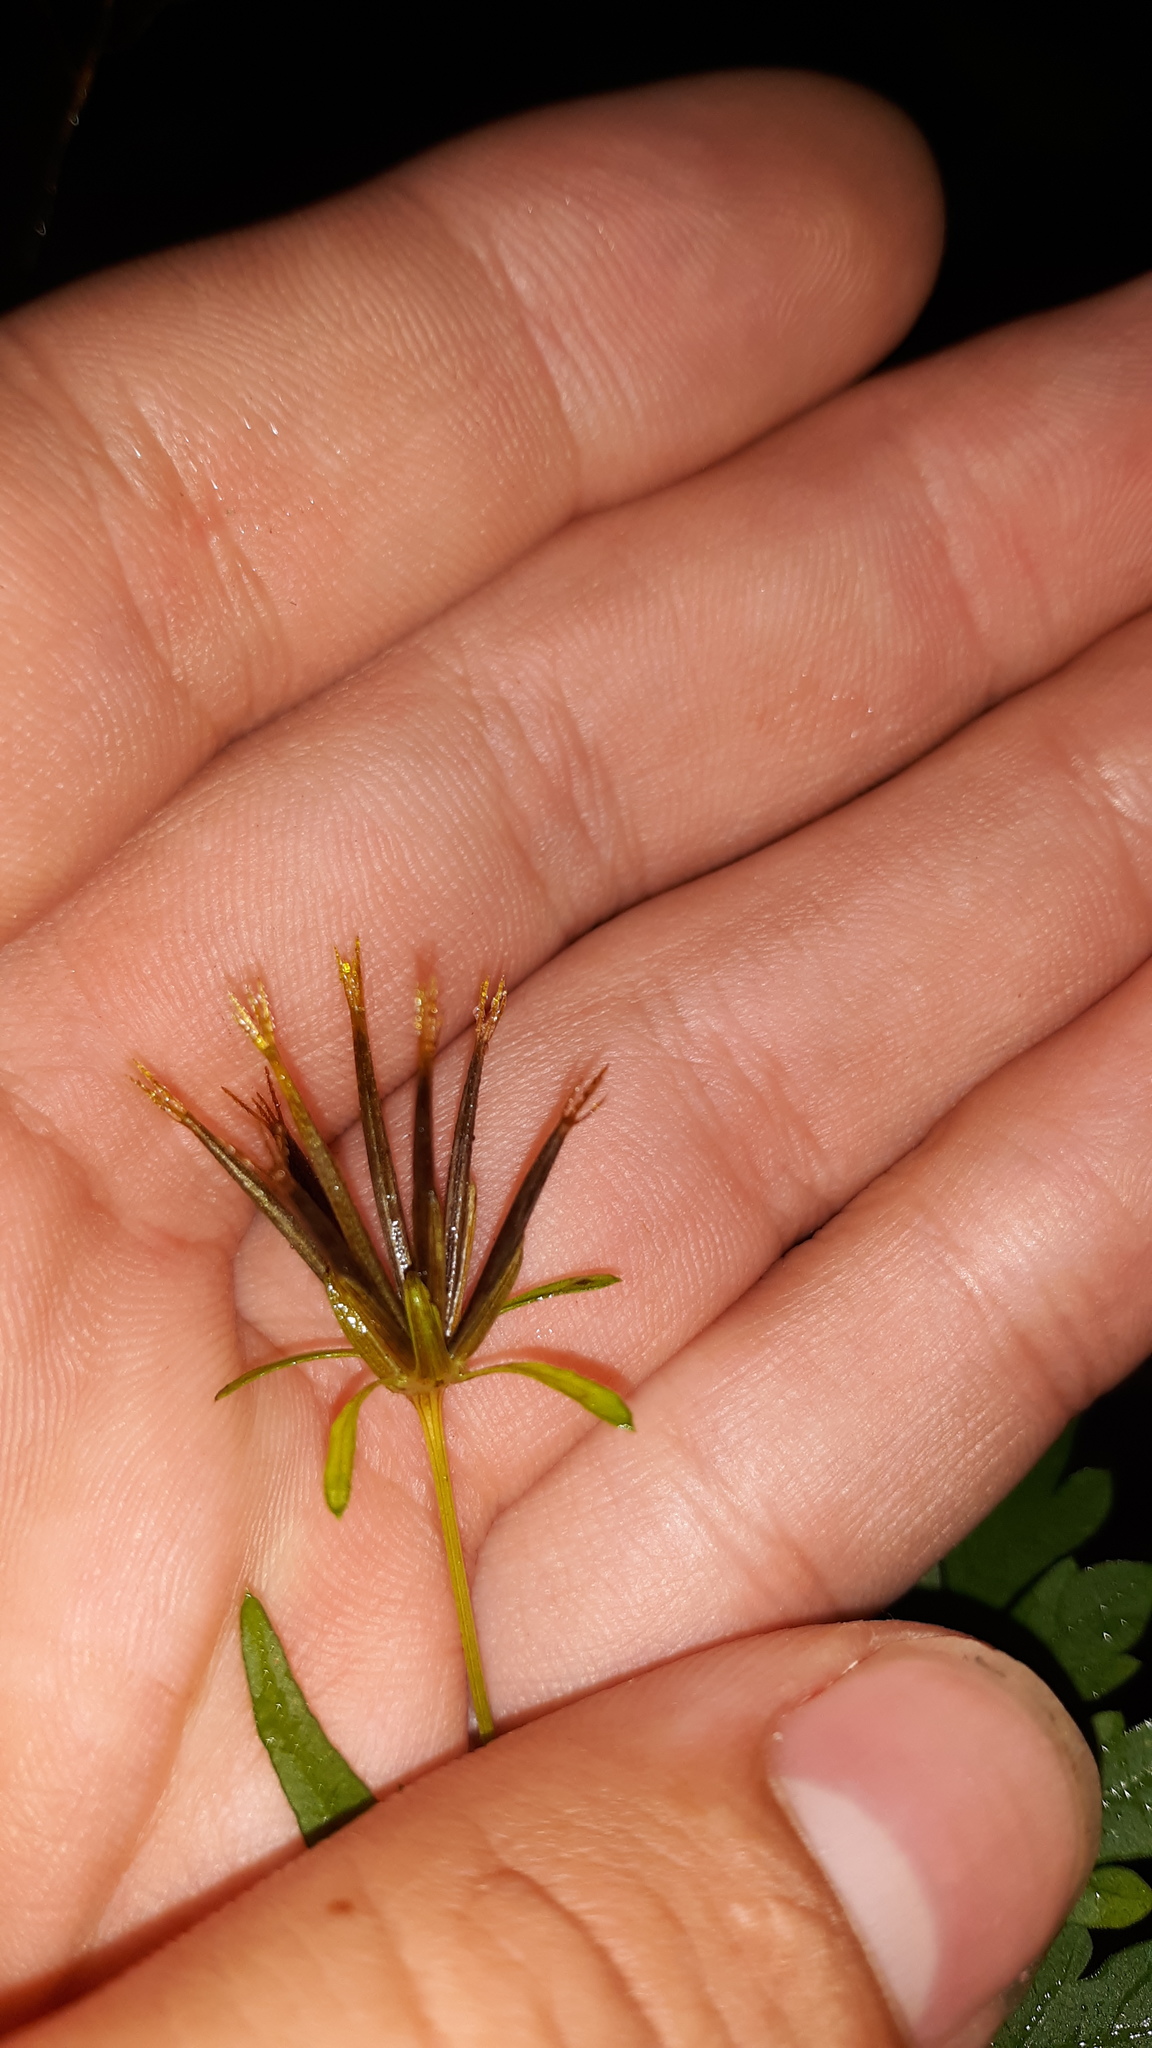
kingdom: Plantae
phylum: Tracheophyta
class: Magnoliopsida
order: Asterales
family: Asteraceae
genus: Bidens
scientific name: Bidens bipinnata
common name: Spanish-needles
